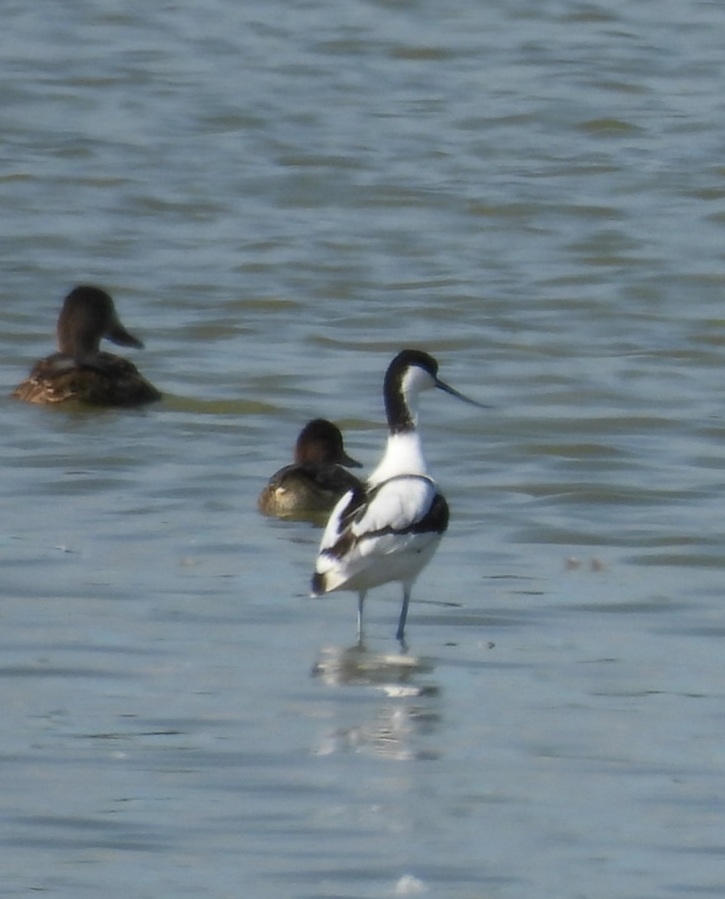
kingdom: Animalia
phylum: Chordata
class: Aves
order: Charadriiformes
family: Recurvirostridae
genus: Recurvirostra
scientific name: Recurvirostra avosetta
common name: Pied avocet
